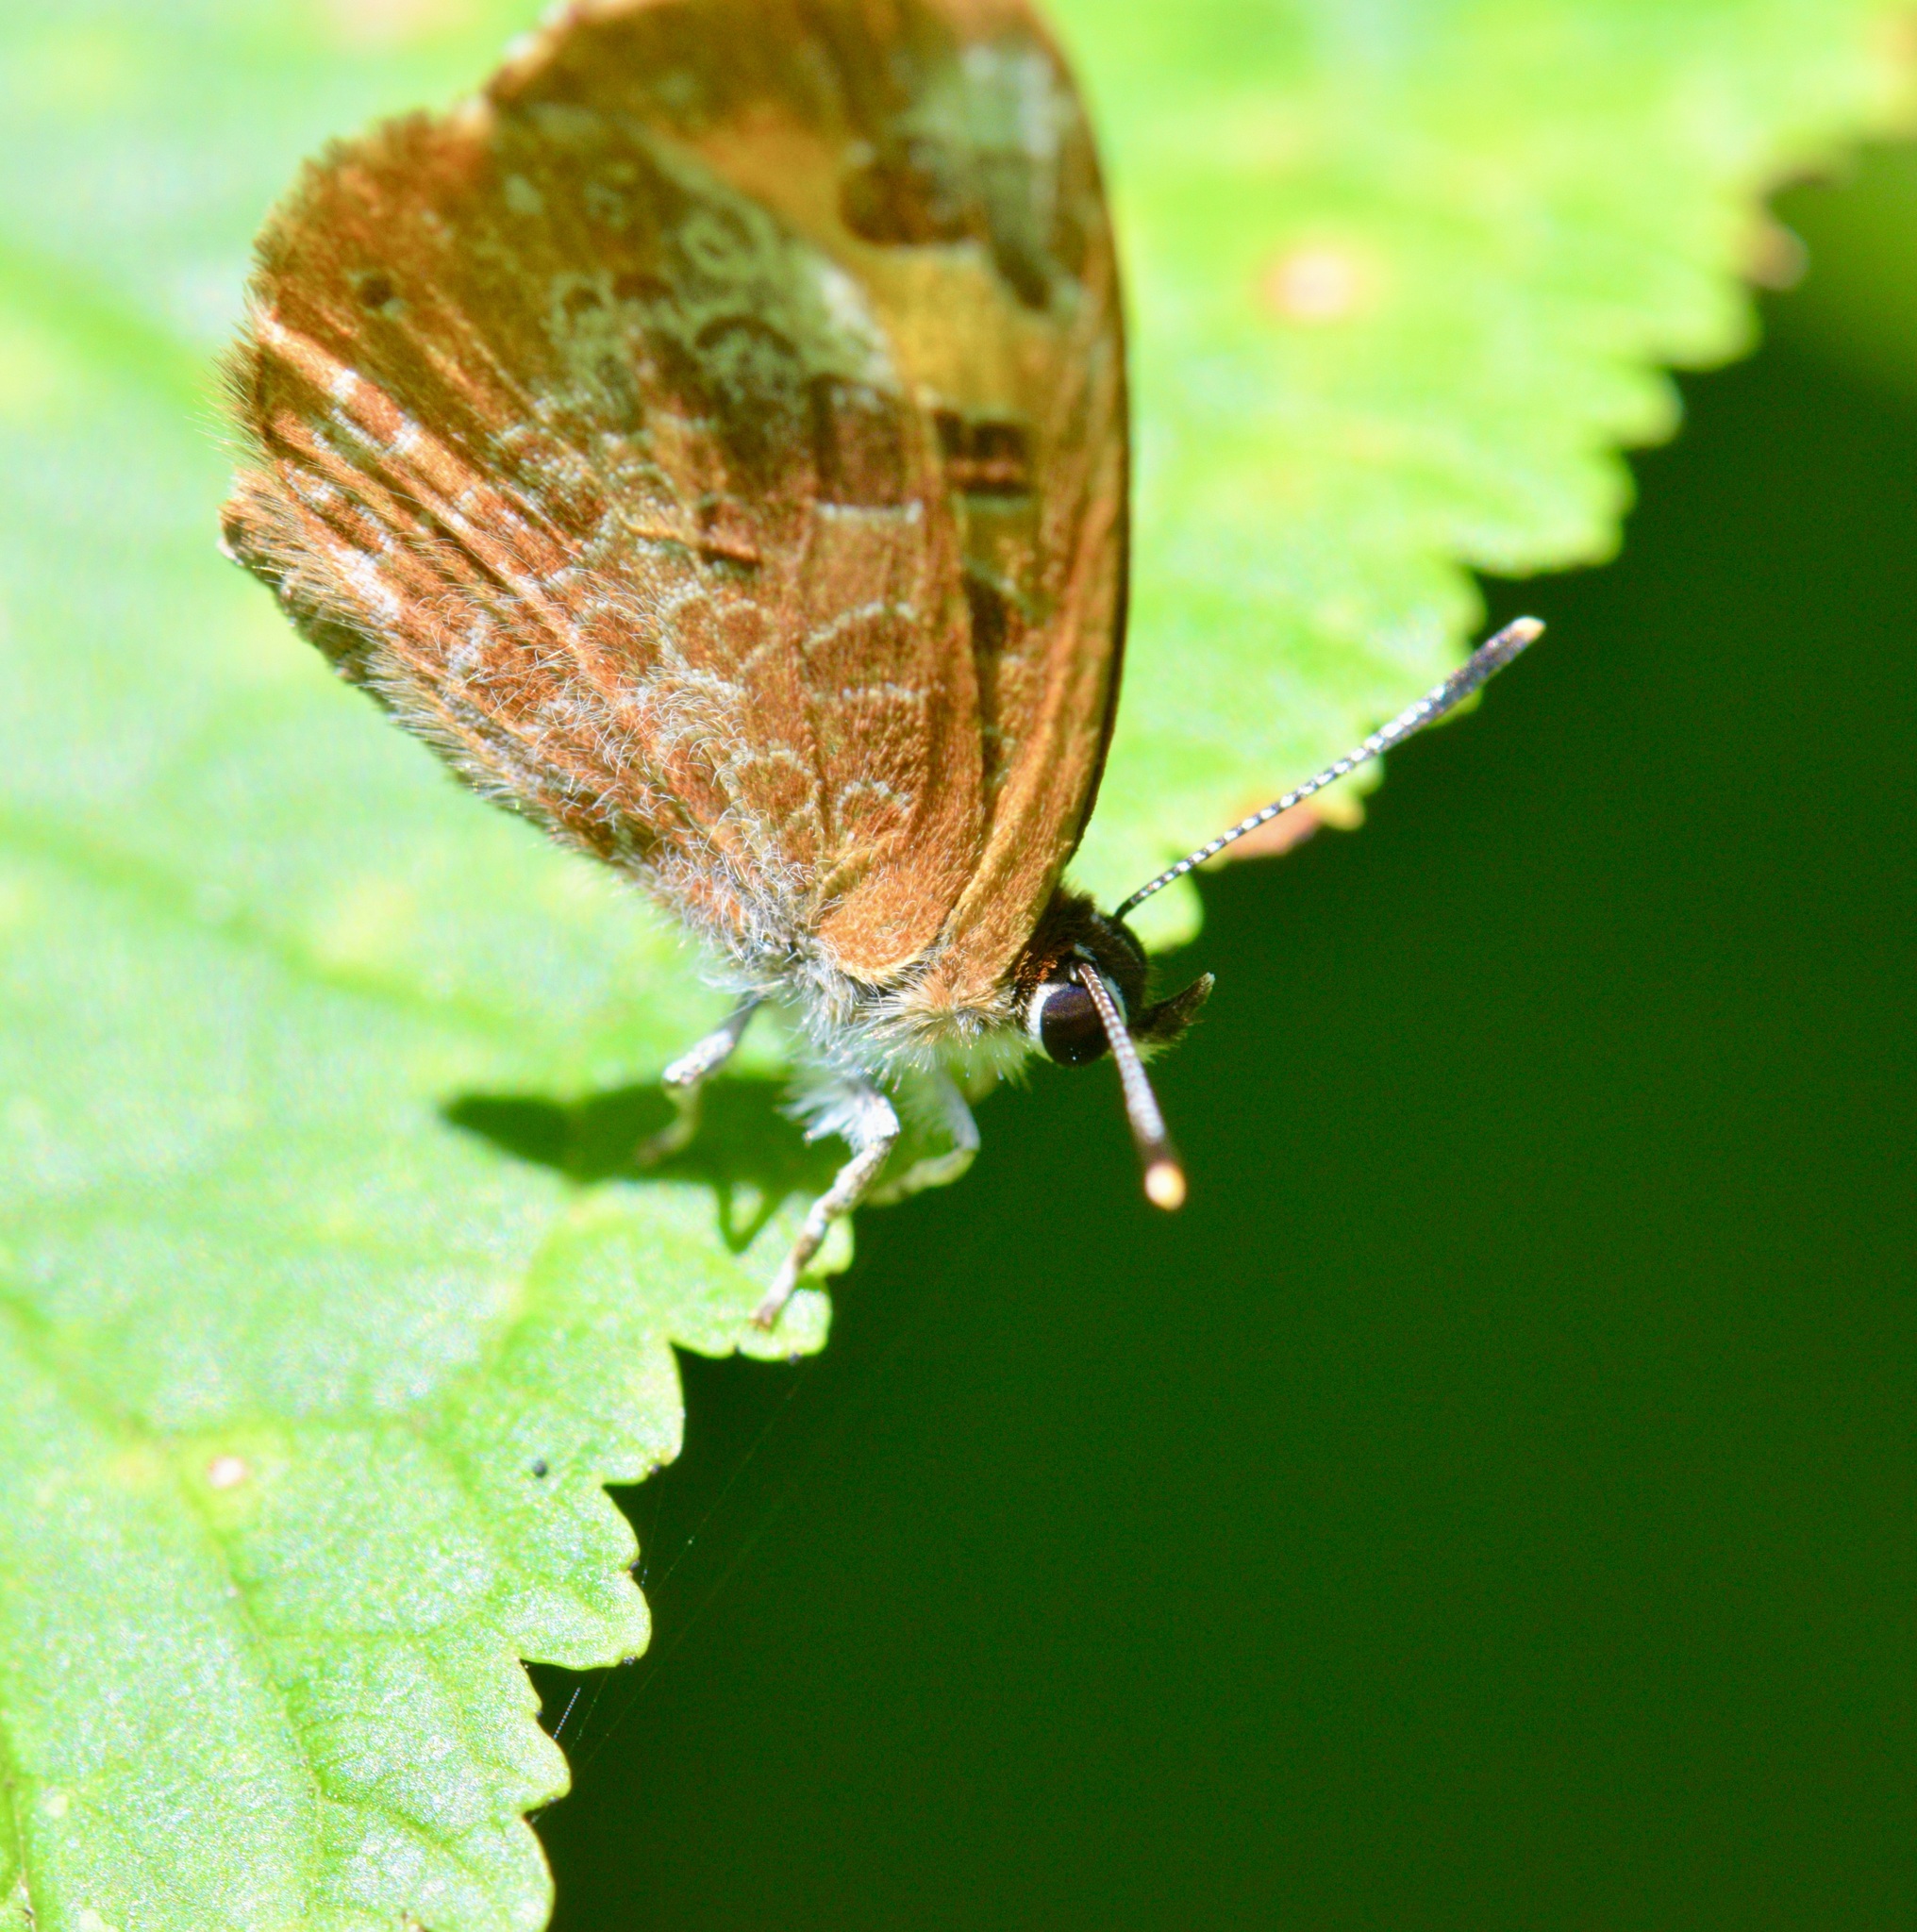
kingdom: Animalia
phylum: Arthropoda
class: Insecta
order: Lepidoptera
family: Lycaenidae
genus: Feniseca
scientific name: Feniseca tarquinius
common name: Harvester
